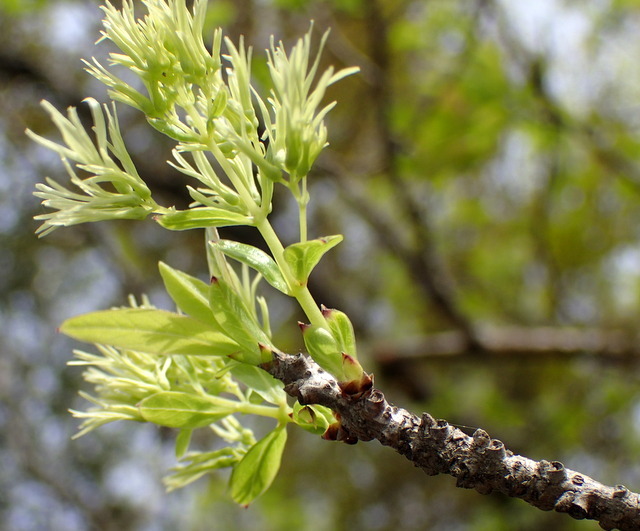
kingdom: Plantae
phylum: Tracheophyta
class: Magnoliopsida
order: Lamiales
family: Oleaceae
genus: Chionanthus
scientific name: Chionanthus virginicus
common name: American fringetree
